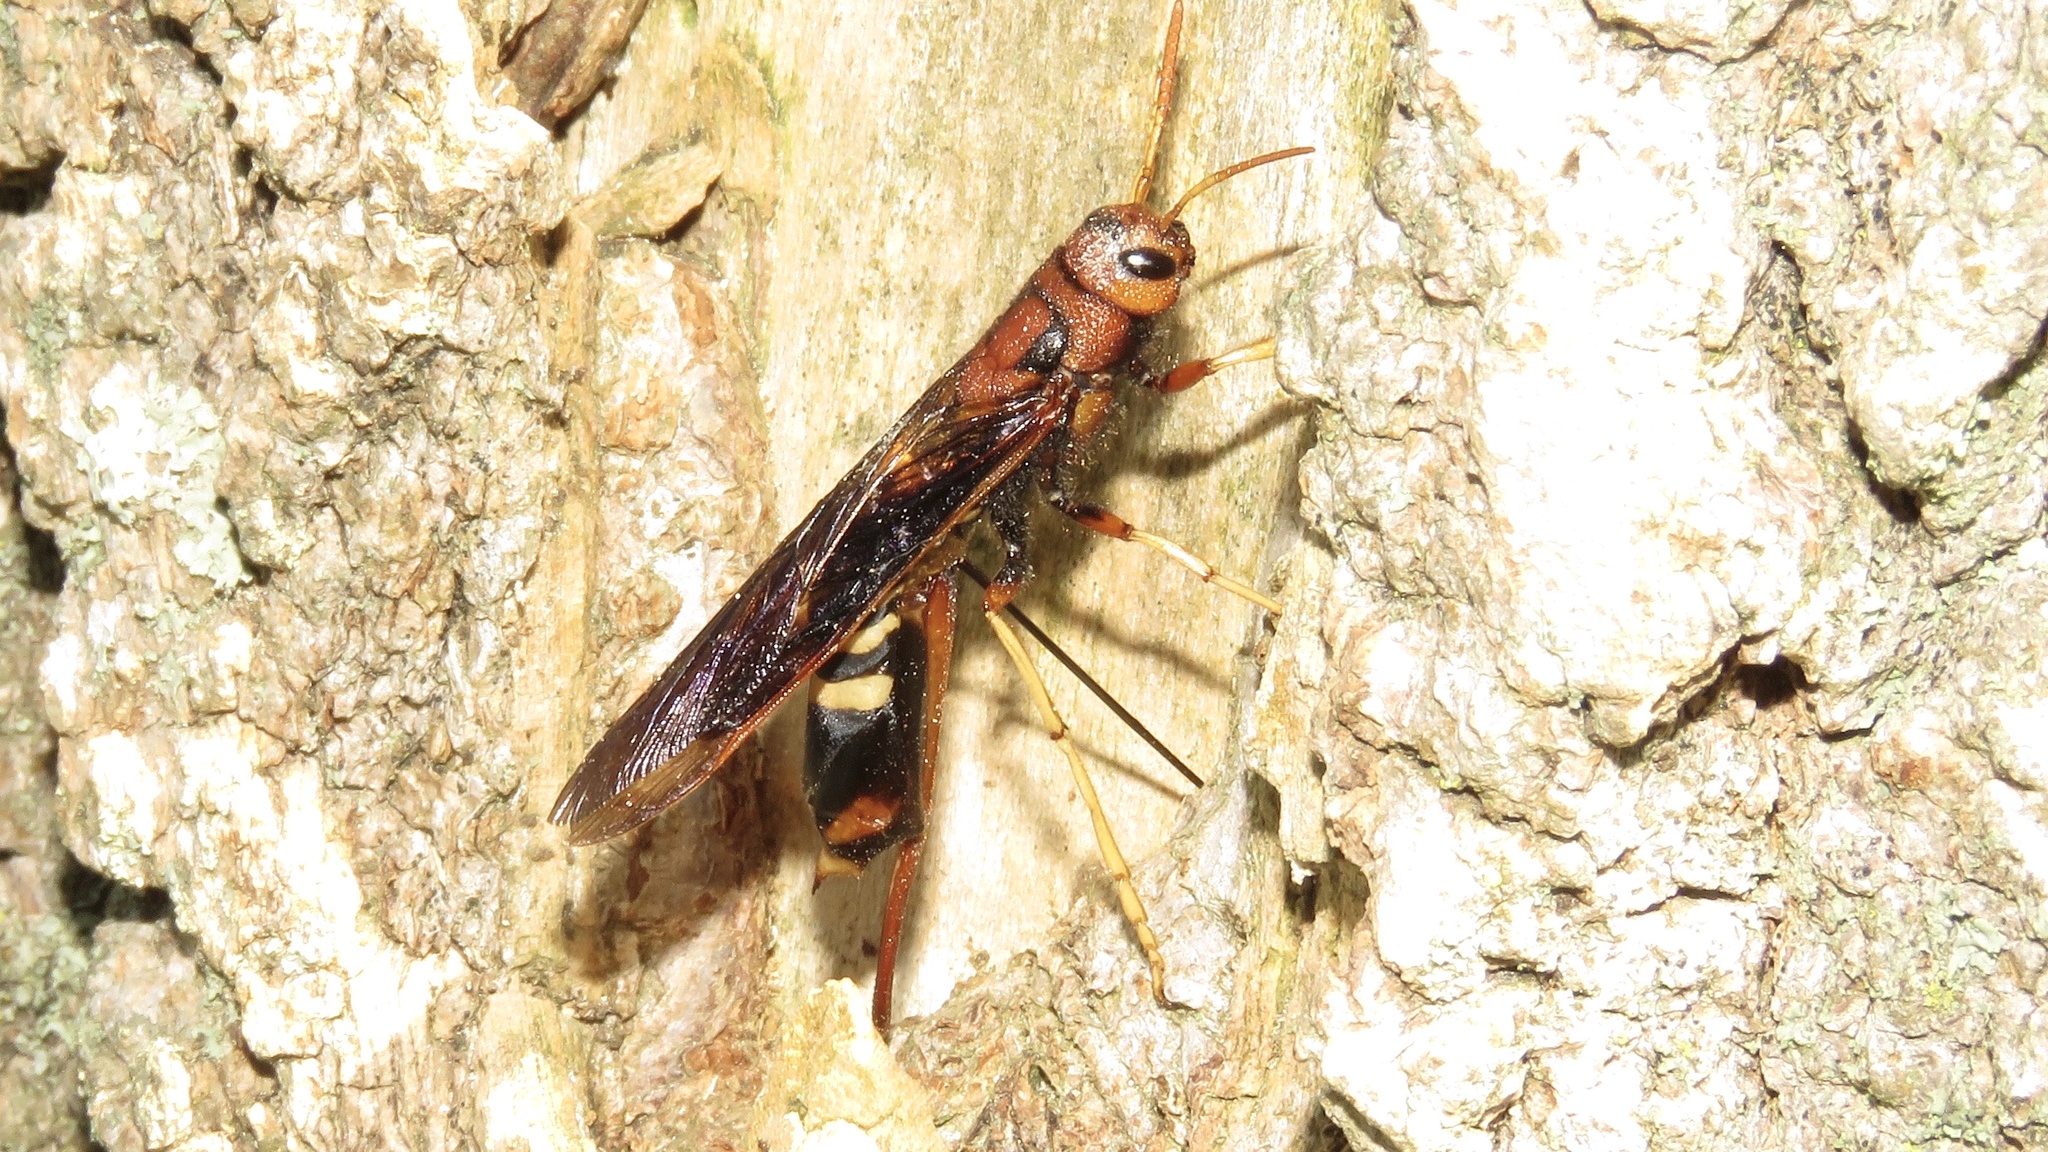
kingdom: Animalia
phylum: Arthropoda
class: Insecta
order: Hymenoptera
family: Siricidae
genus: Tremex
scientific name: Tremex columba
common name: Wasp
